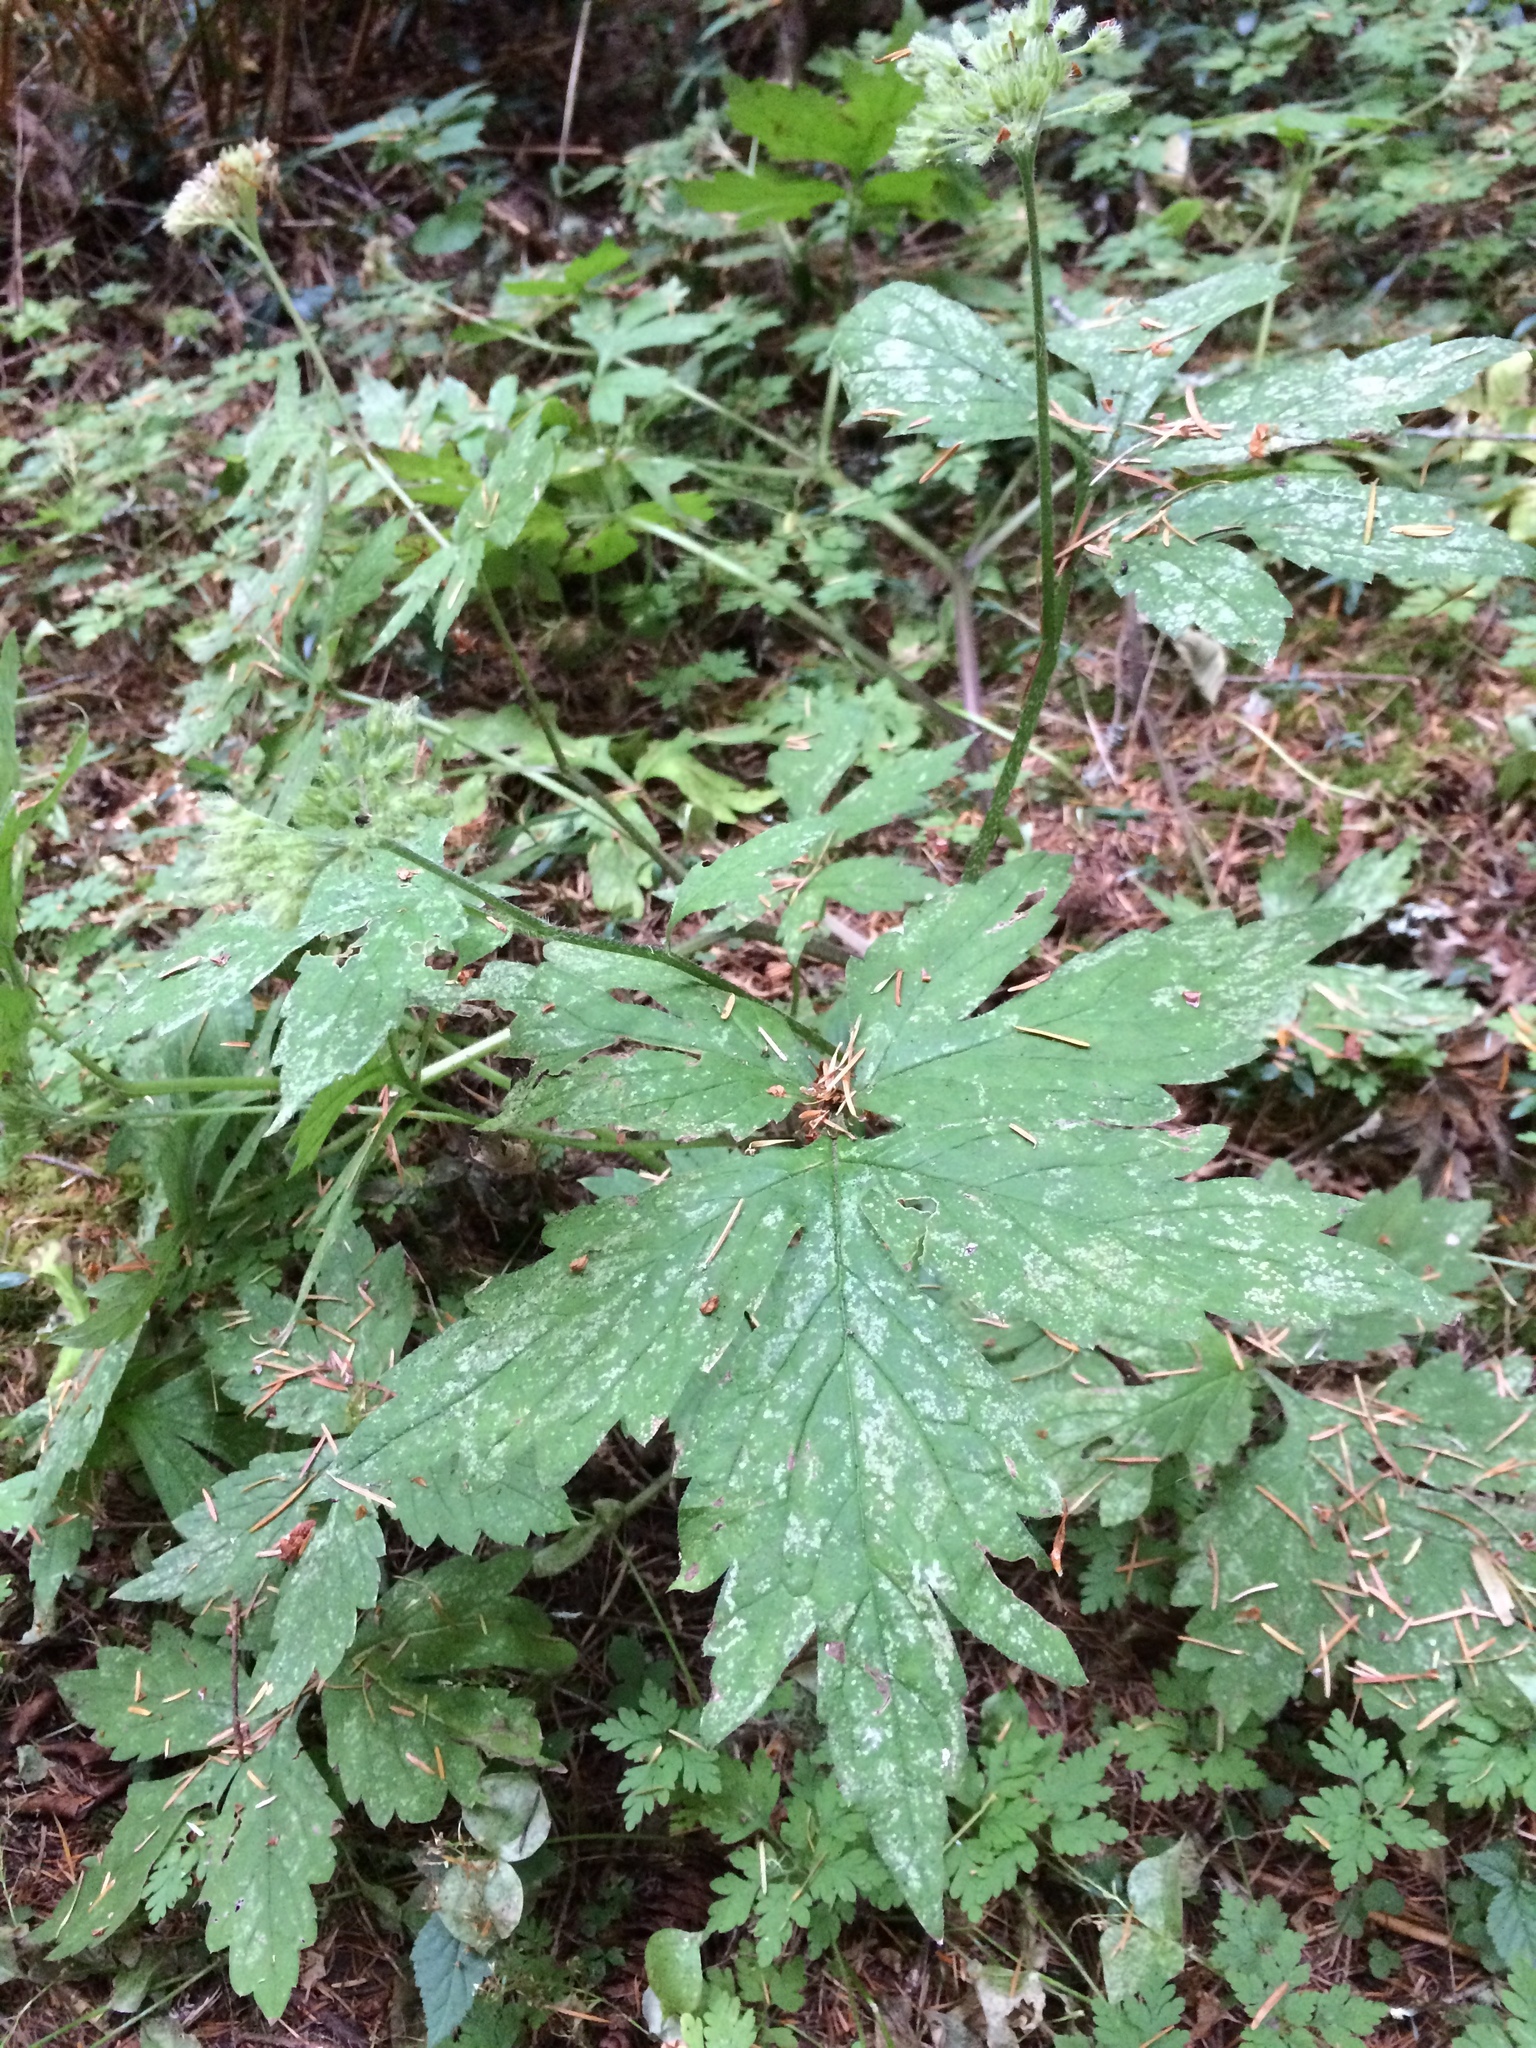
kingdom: Plantae
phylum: Tracheophyta
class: Magnoliopsida
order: Boraginales
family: Hydrophyllaceae
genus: Hydrophyllum
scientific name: Hydrophyllum tenuipes
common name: Pacific waterleaf
